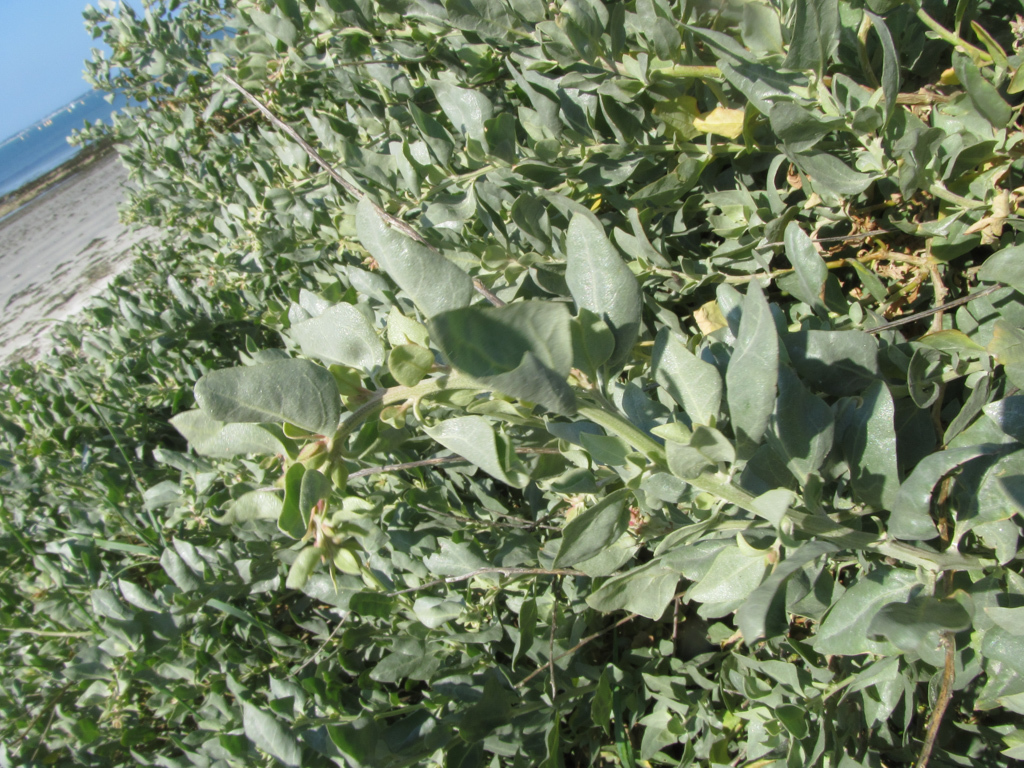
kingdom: Plantae
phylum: Tracheophyta
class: Magnoliopsida
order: Caryophyllales
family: Amaranthaceae
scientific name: Amaranthaceae
